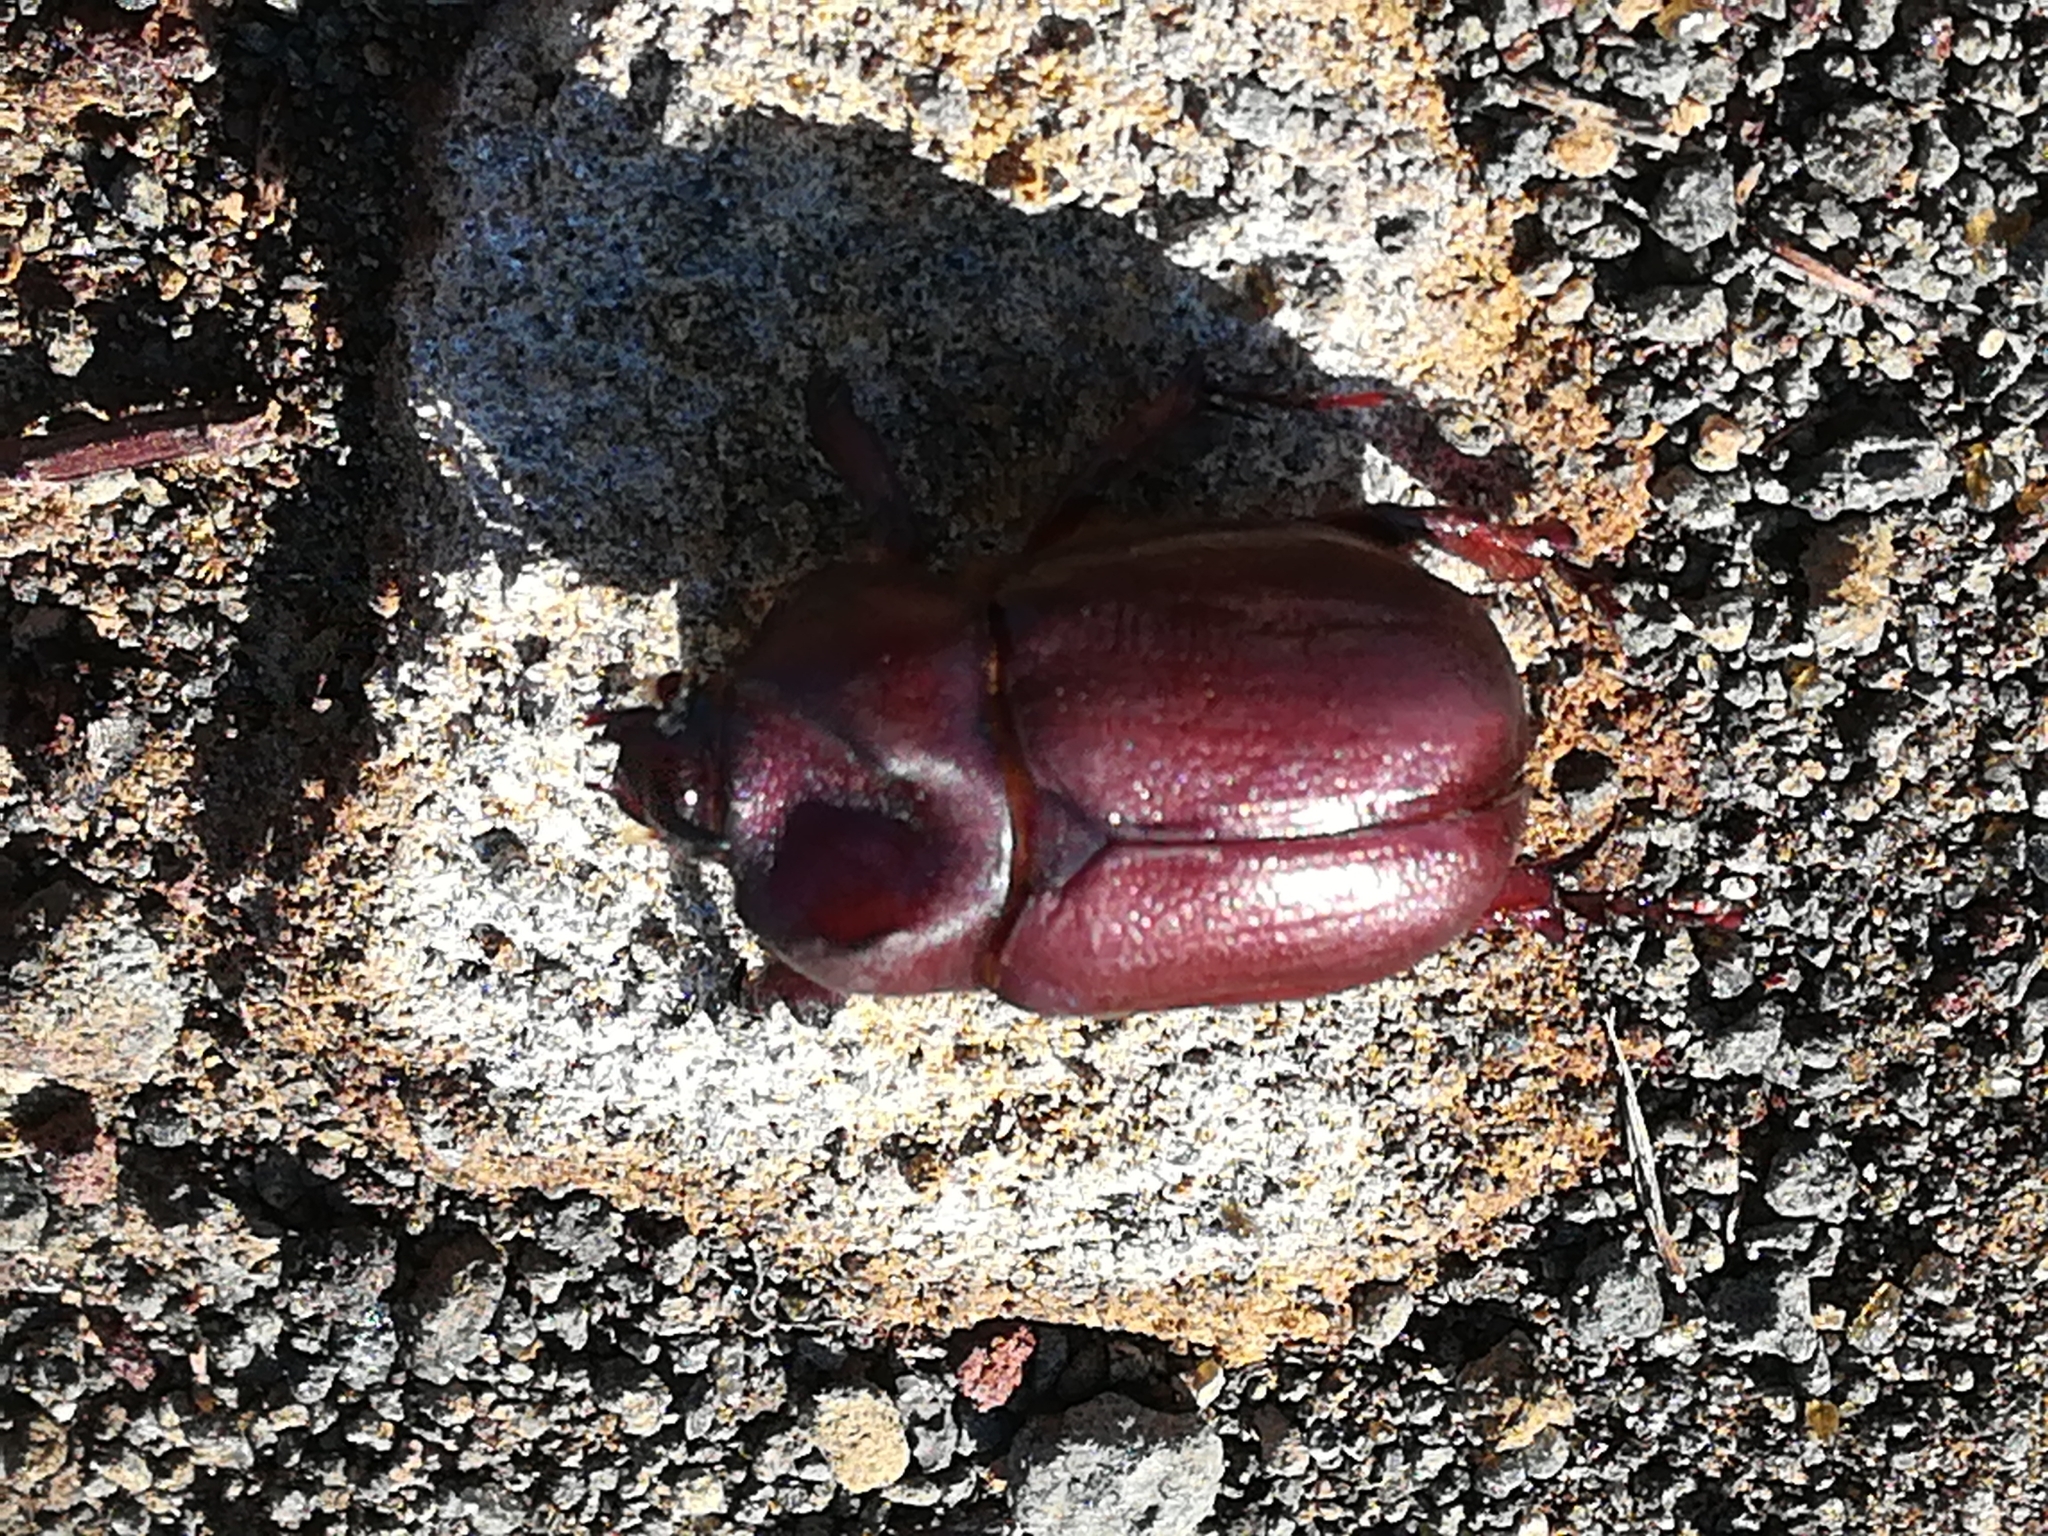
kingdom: Animalia
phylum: Arthropoda
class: Insecta
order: Coleoptera
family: Scarabaeidae
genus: Phyllognathus
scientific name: Phyllognathus excavatus
